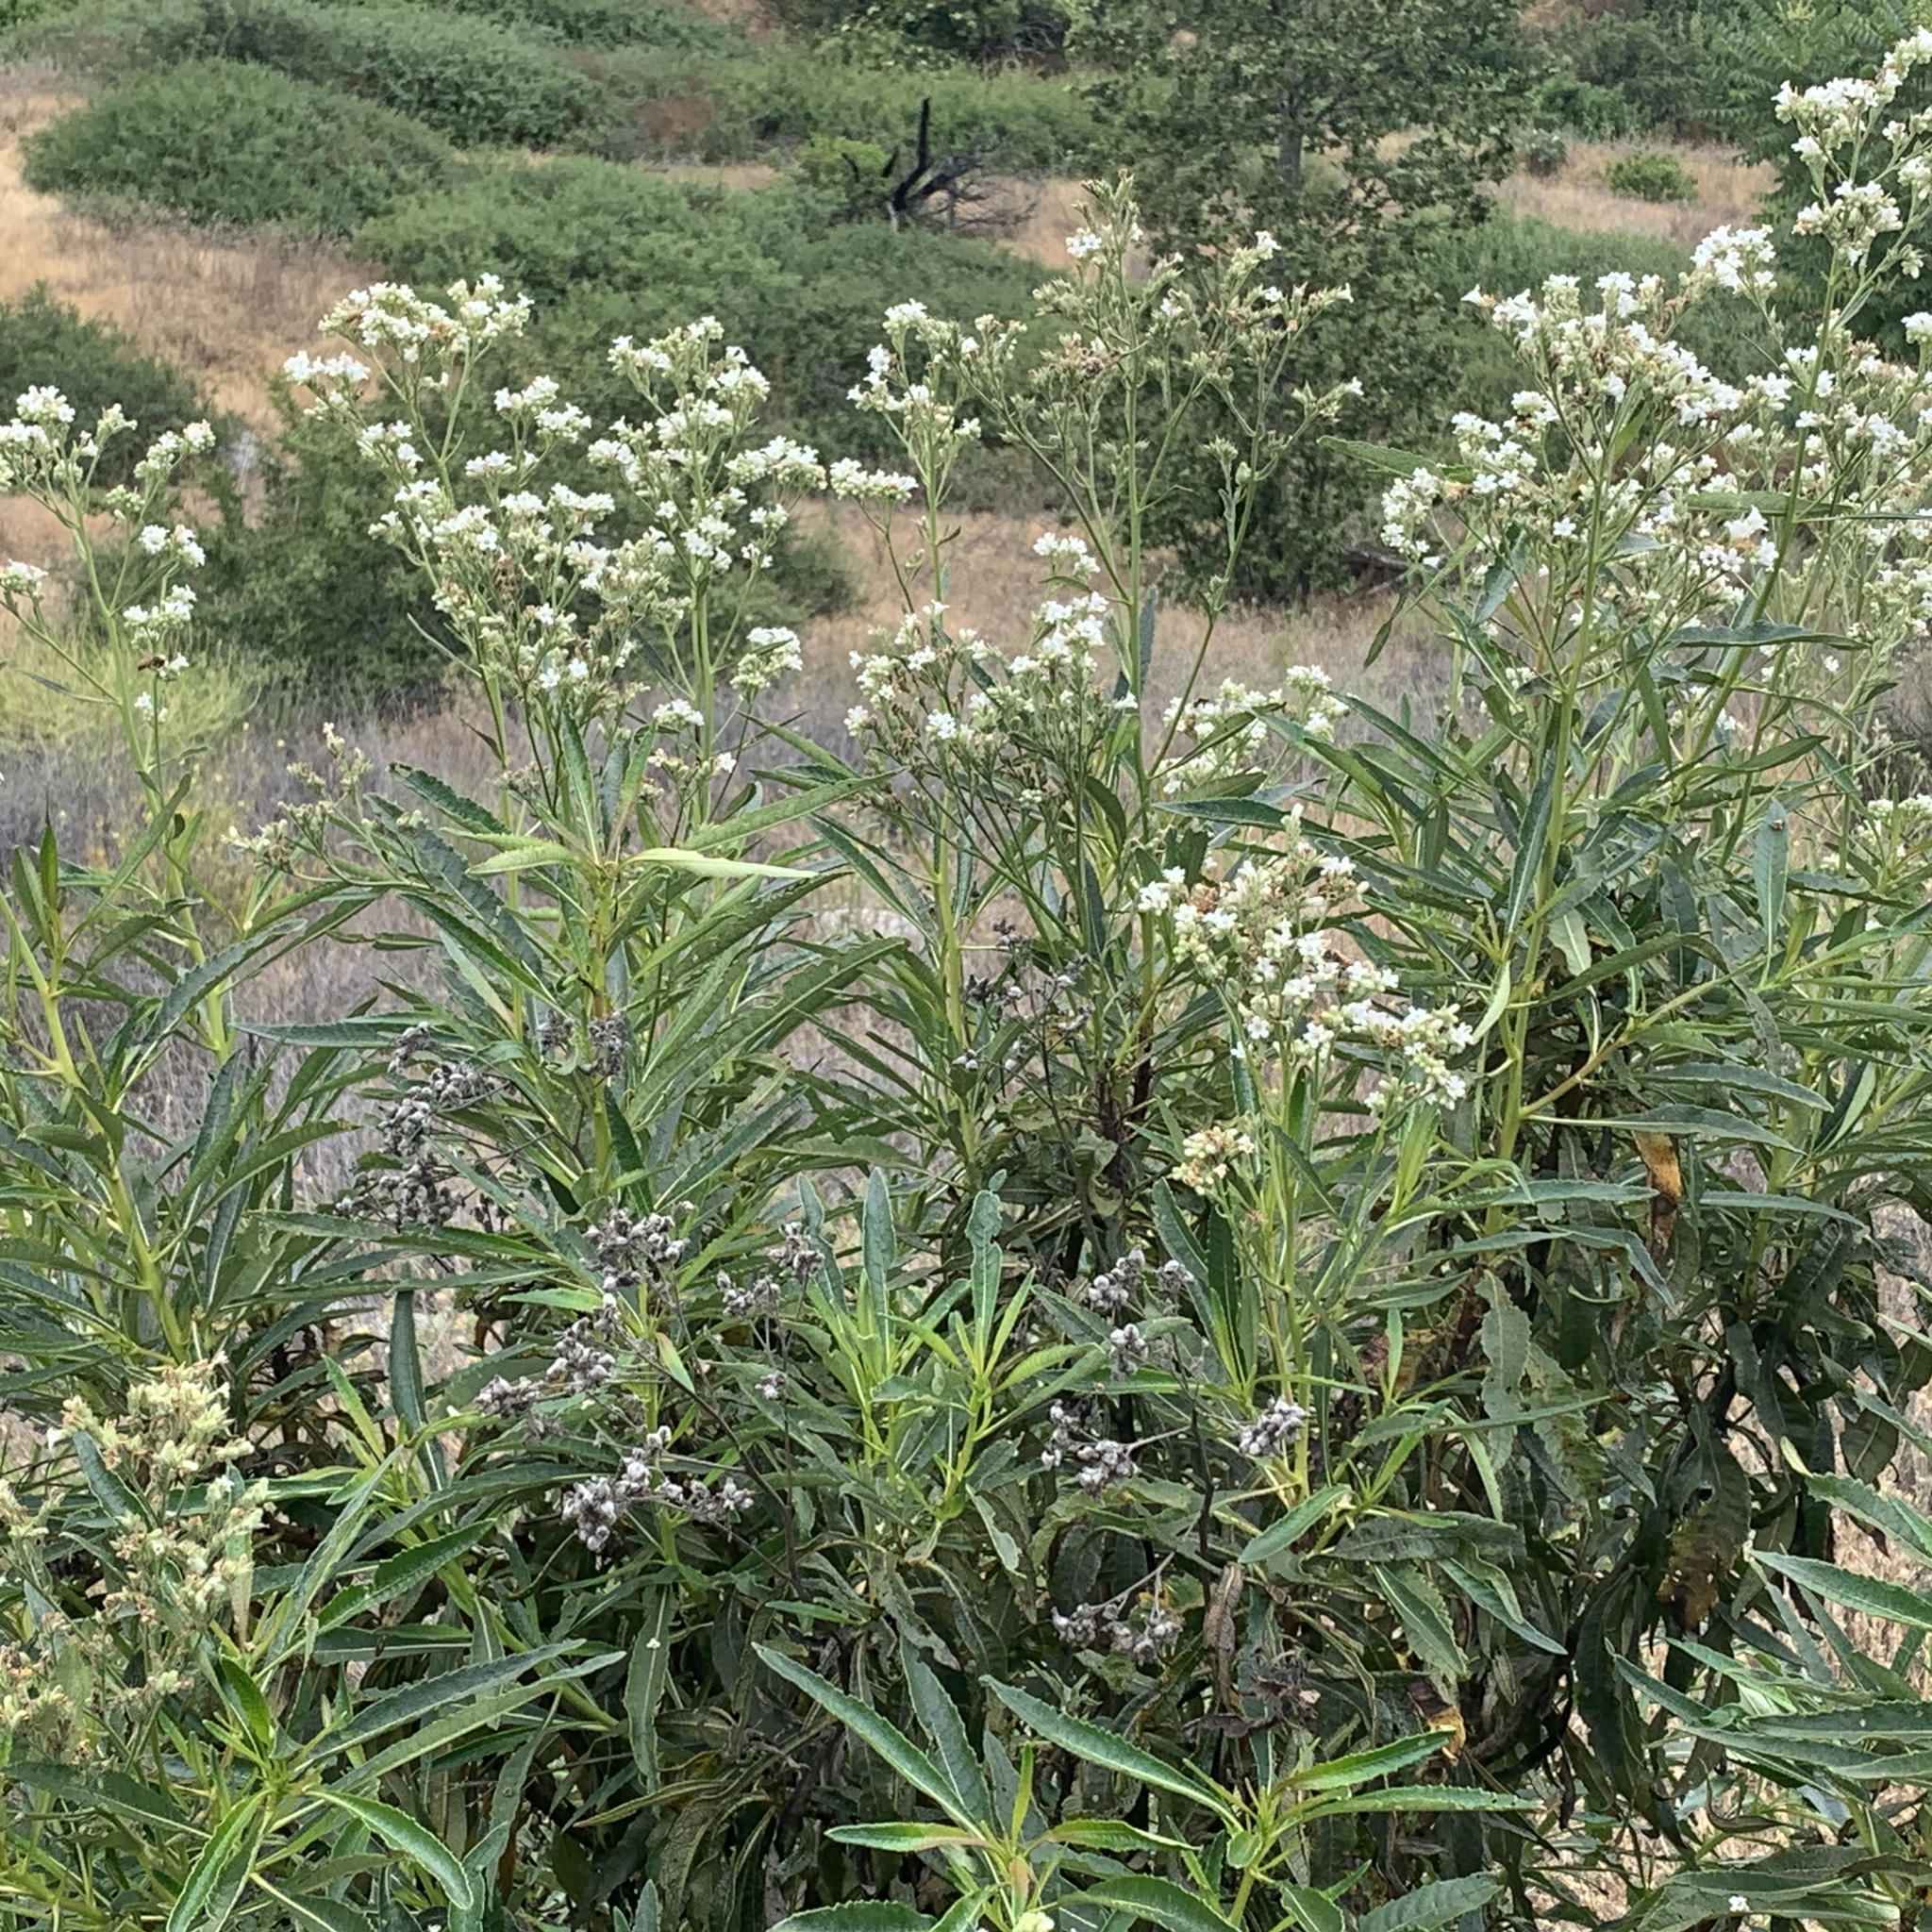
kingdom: Plantae
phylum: Tracheophyta
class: Magnoliopsida
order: Boraginales
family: Namaceae
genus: Eriodictyon
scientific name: Eriodictyon trichocalyx
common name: Hairy yerba-santa
